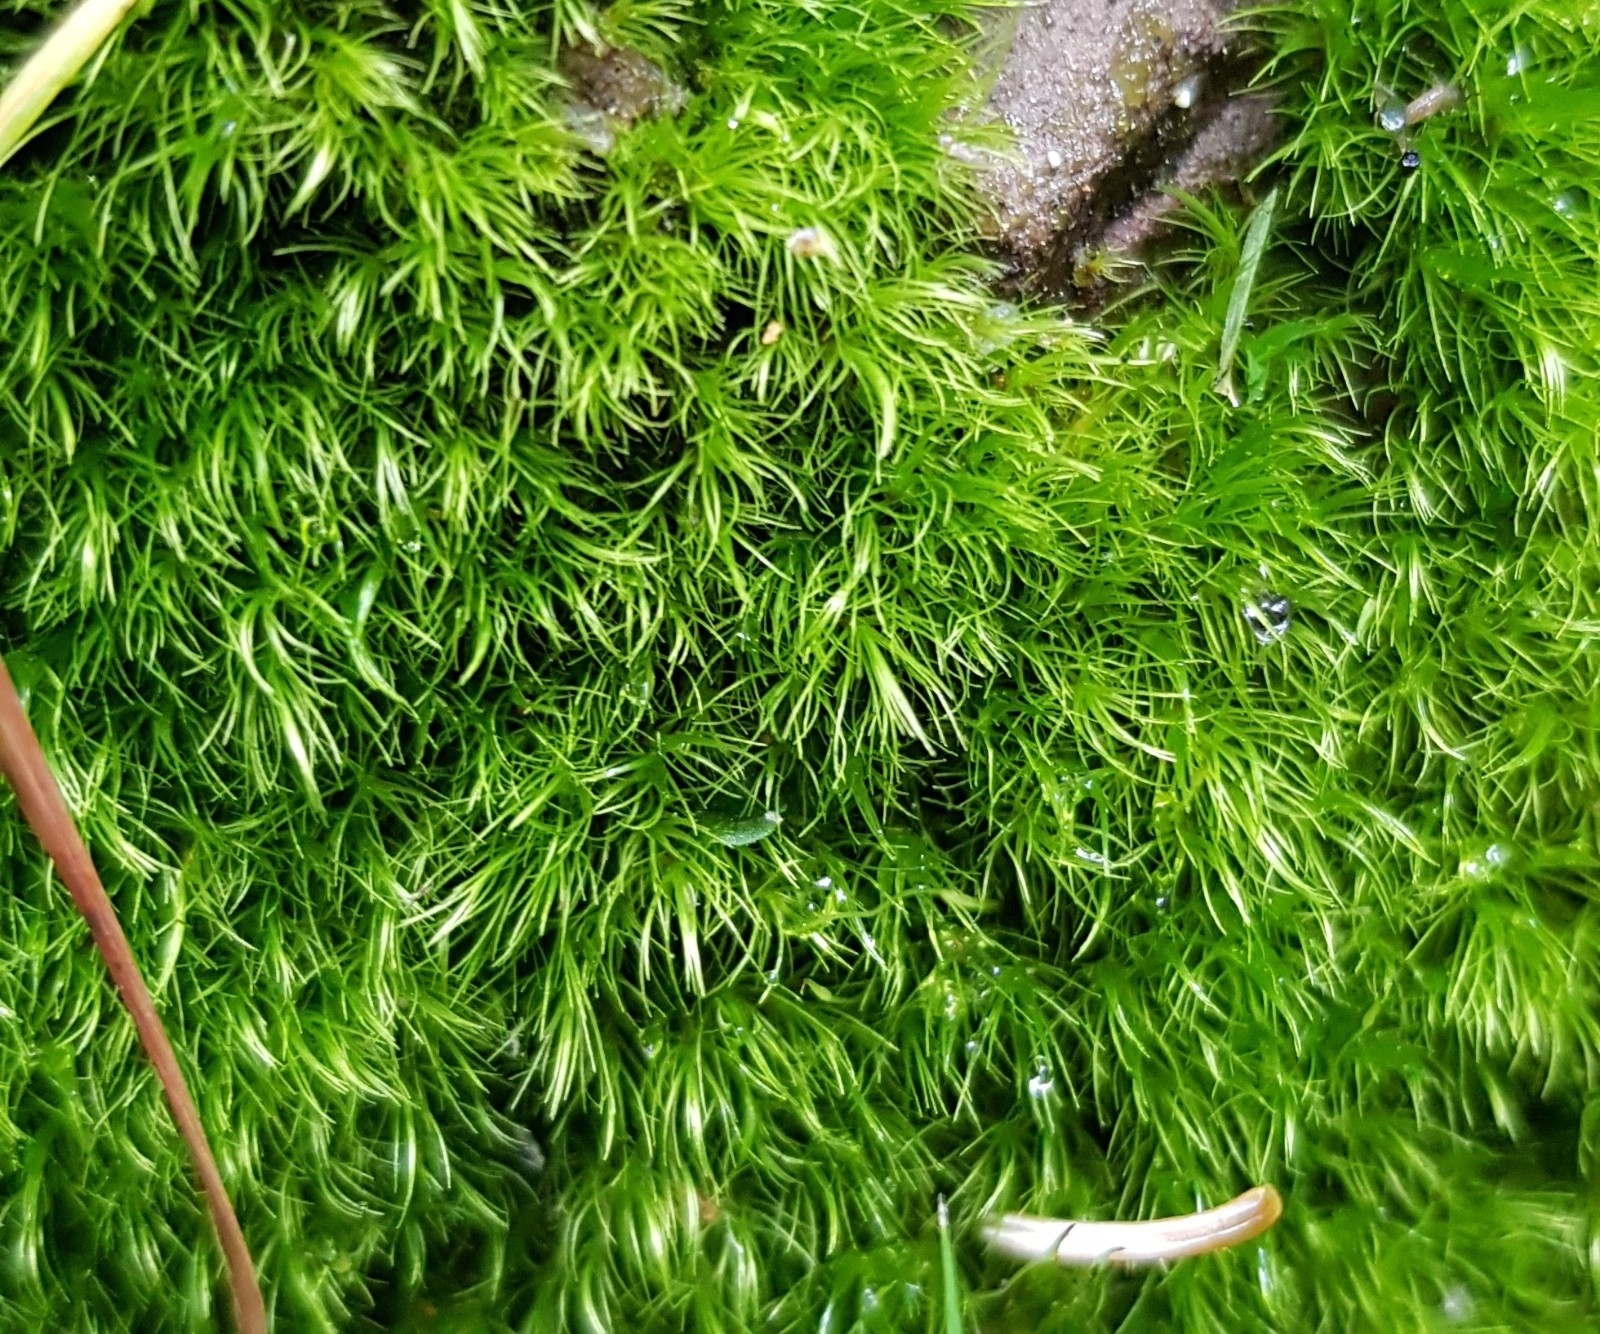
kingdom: Plantae
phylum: Bryophyta
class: Bryopsida
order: Dicranales
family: Dicranellaceae
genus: Dicranella
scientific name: Dicranella heteromalla
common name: Silky forklet moss
